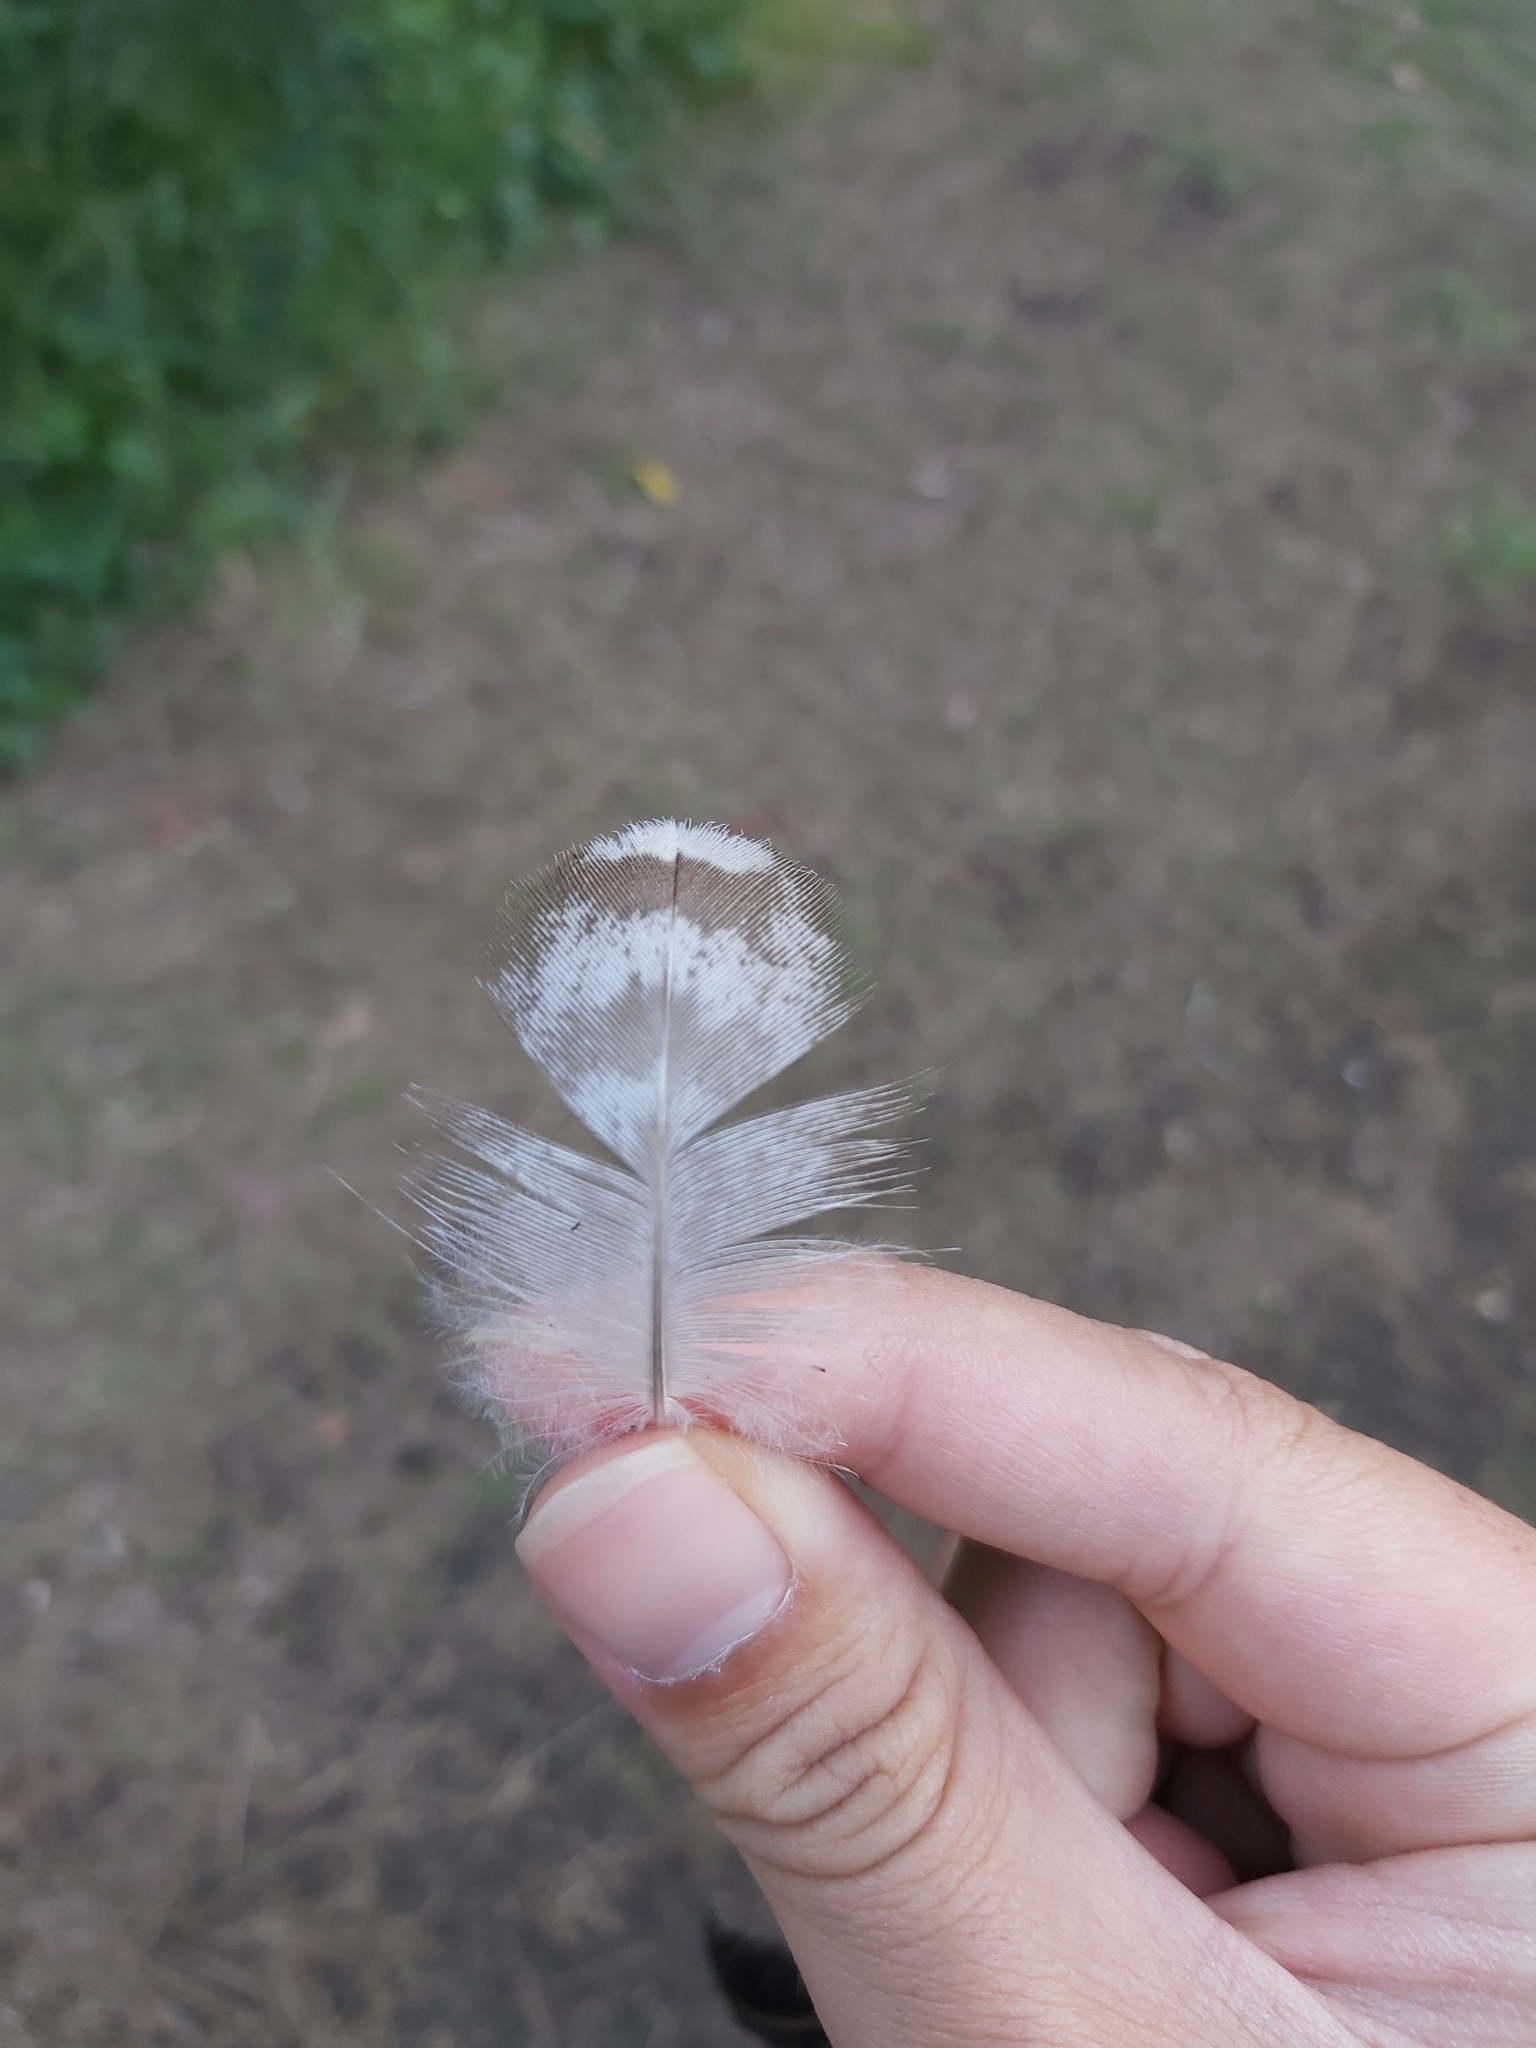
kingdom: Animalia
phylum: Chordata
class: Aves
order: Anseriformes
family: Anatidae
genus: Chenonetta
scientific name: Chenonetta jubata
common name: Maned duck
